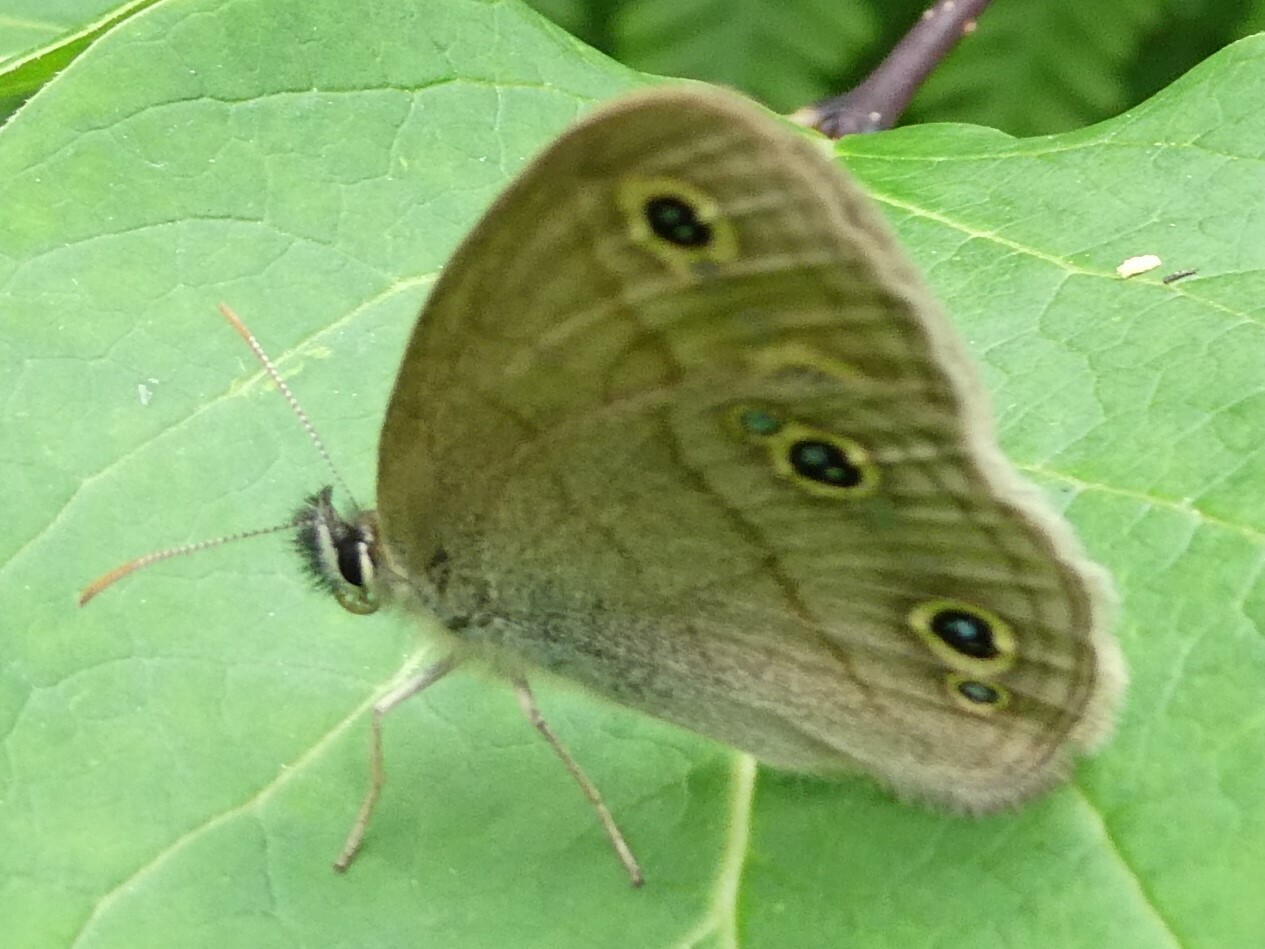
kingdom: Animalia
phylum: Arthropoda
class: Insecta
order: Lepidoptera
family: Nymphalidae
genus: Euptychia
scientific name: Euptychia cymela
